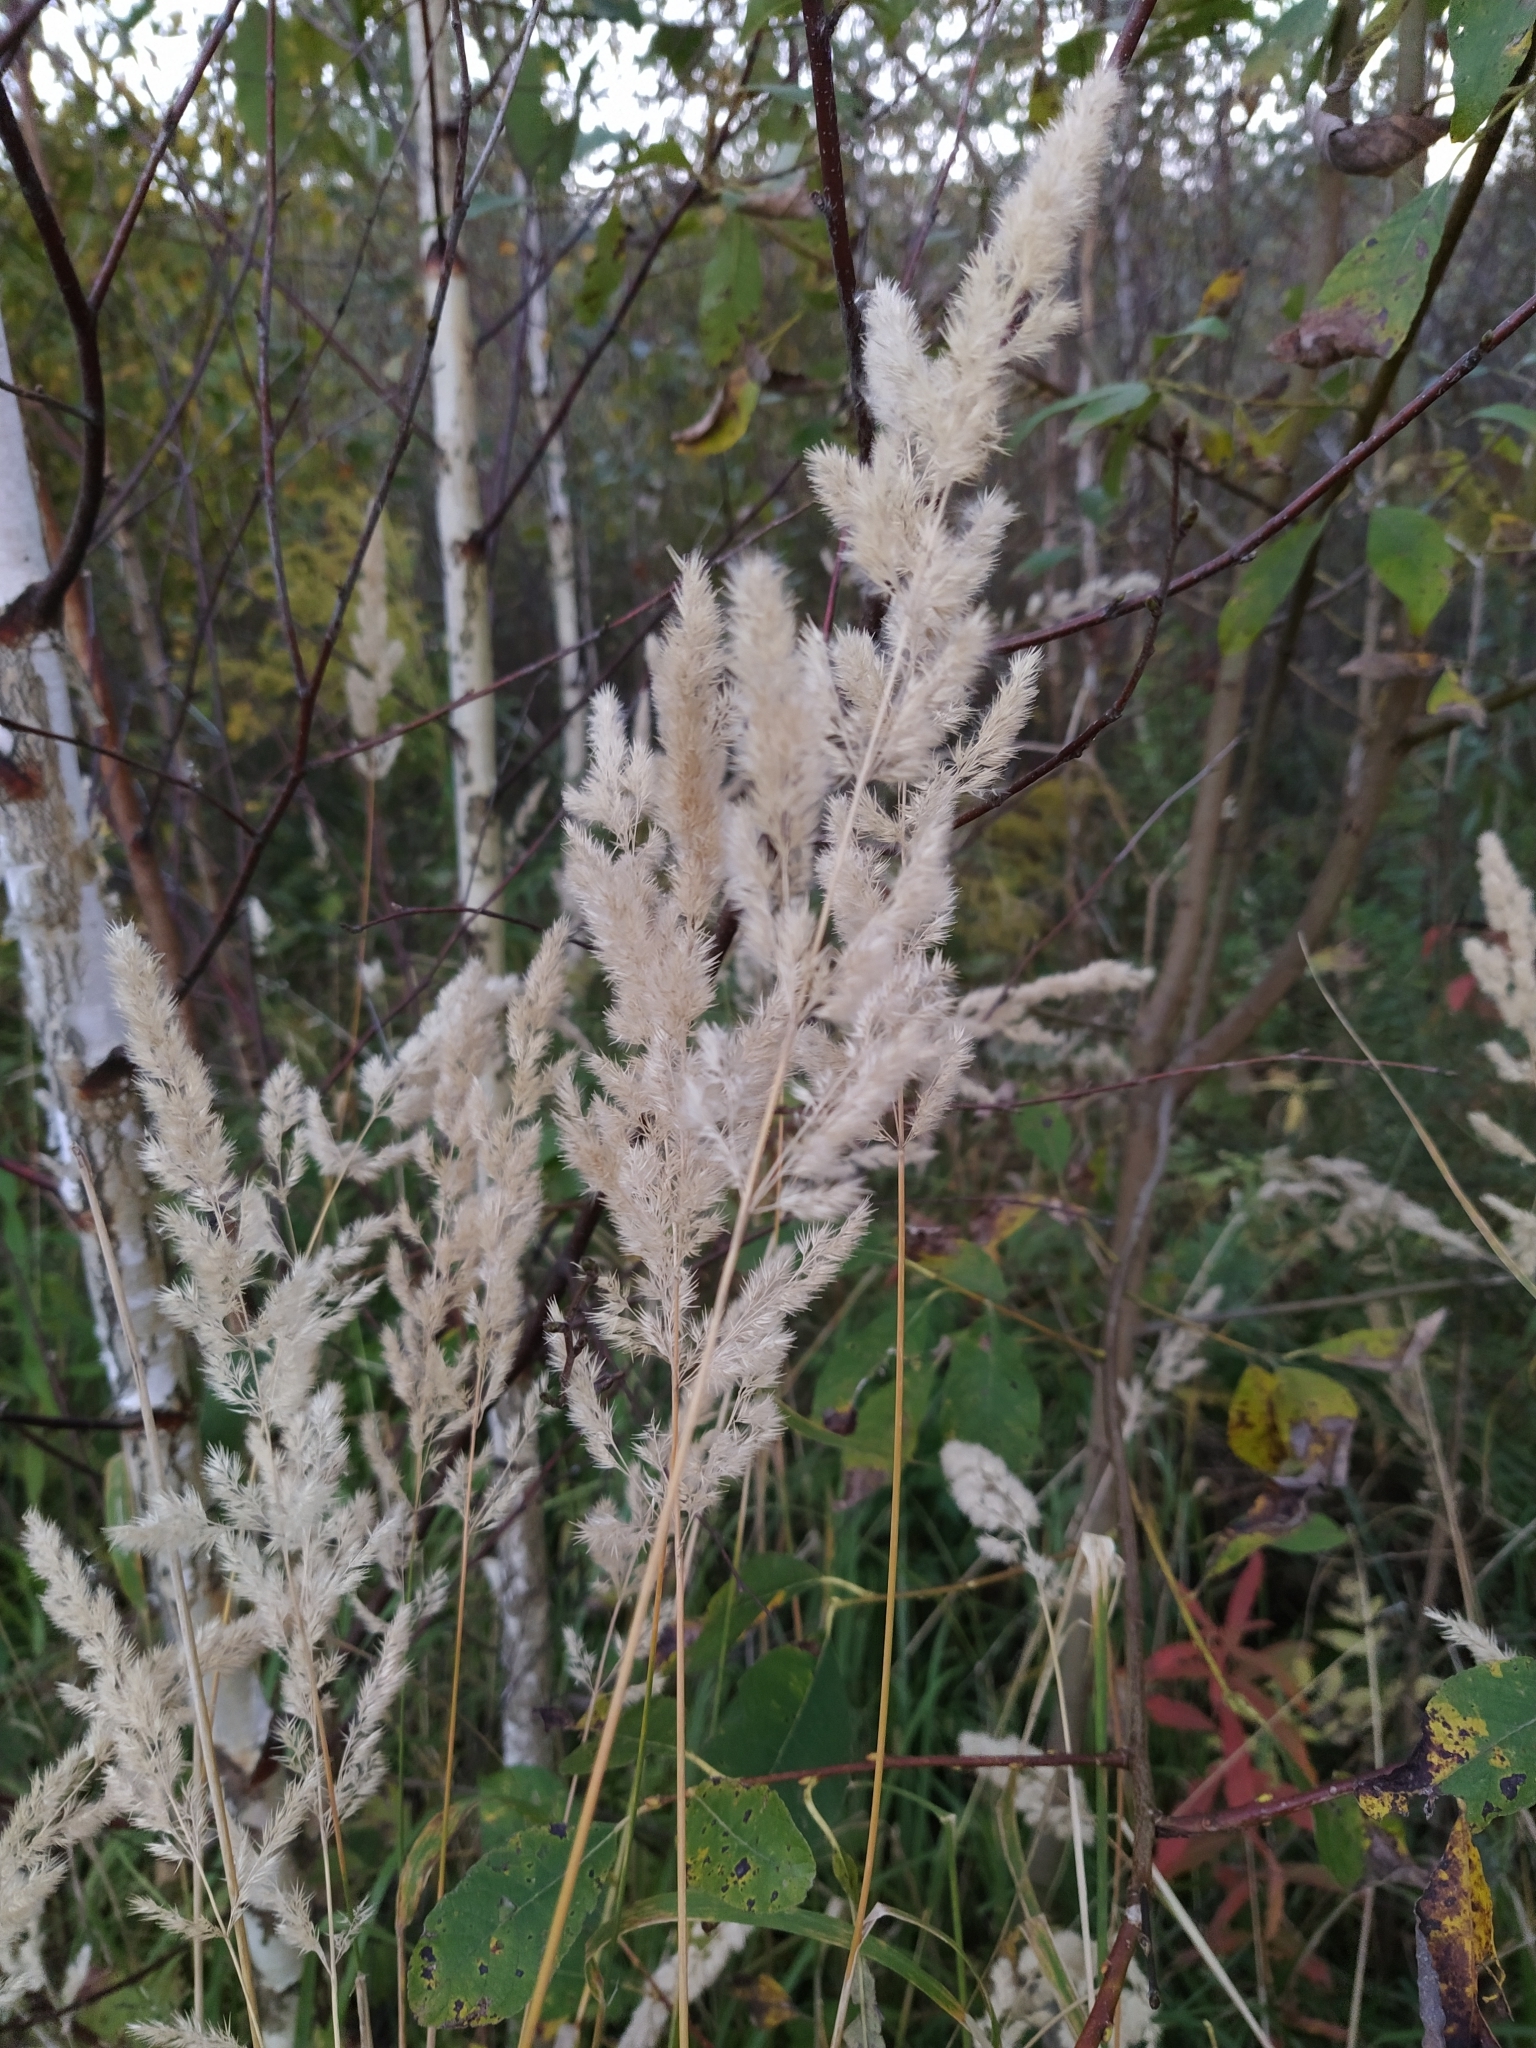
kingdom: Plantae
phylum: Tracheophyta
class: Liliopsida
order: Poales
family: Poaceae
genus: Calamagrostis
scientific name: Calamagrostis epigejos
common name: Wood small-reed
